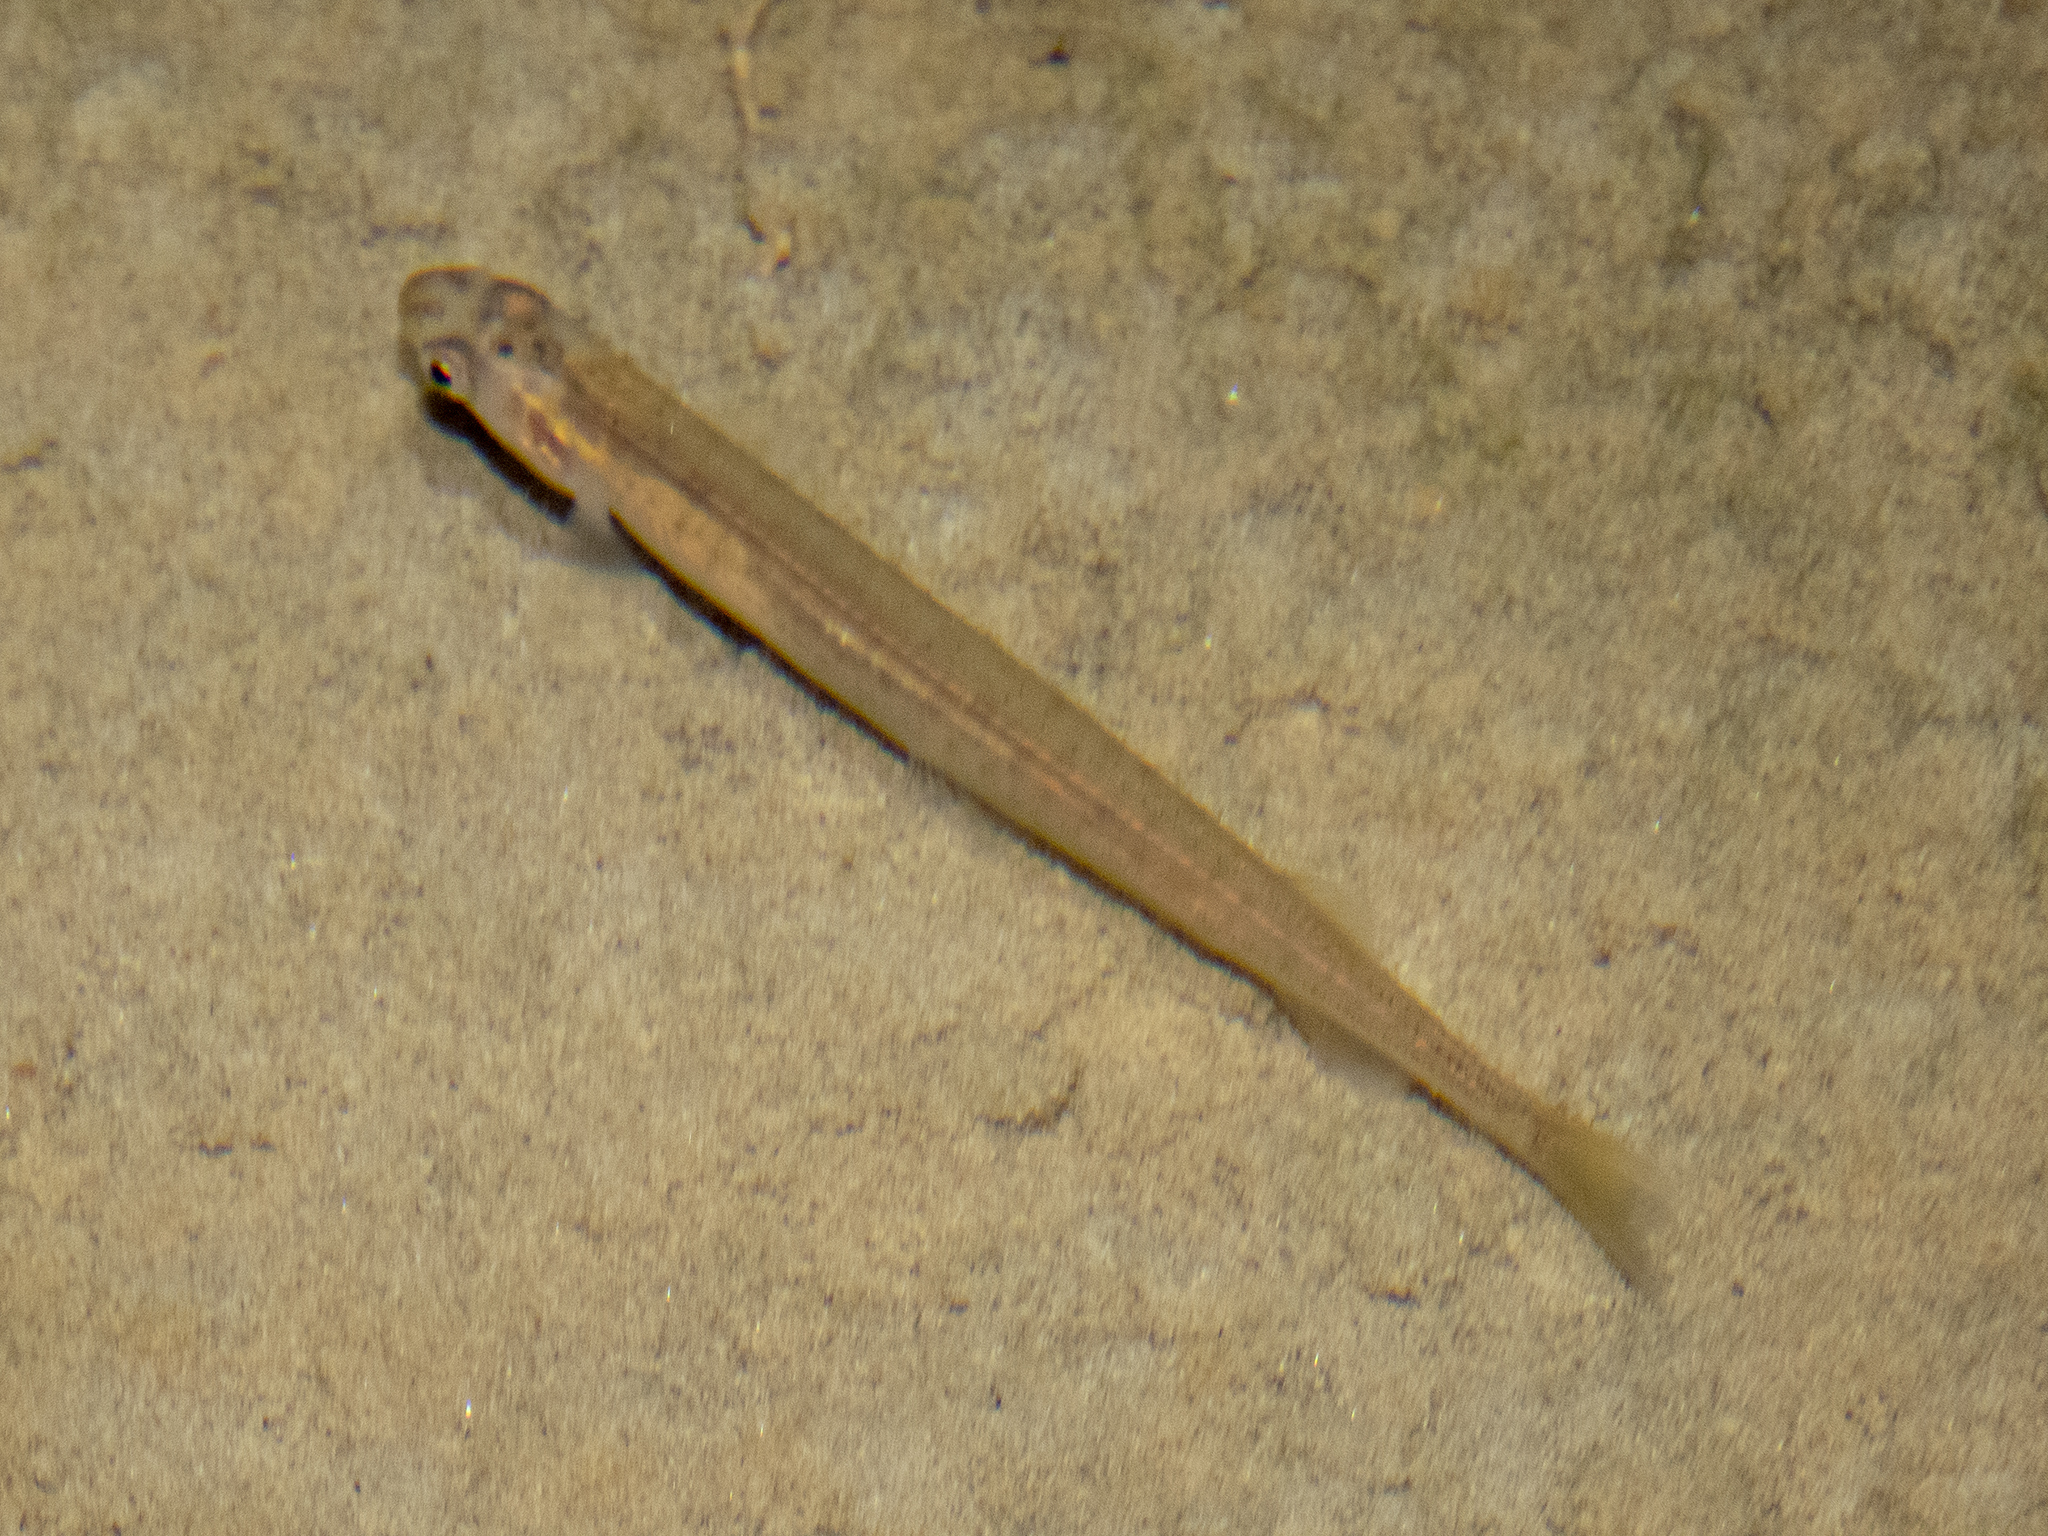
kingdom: Animalia
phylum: Chordata
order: Osmeriformes
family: Galaxiidae
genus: Galaxias
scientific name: Galaxias maculatus
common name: Common galaxias
